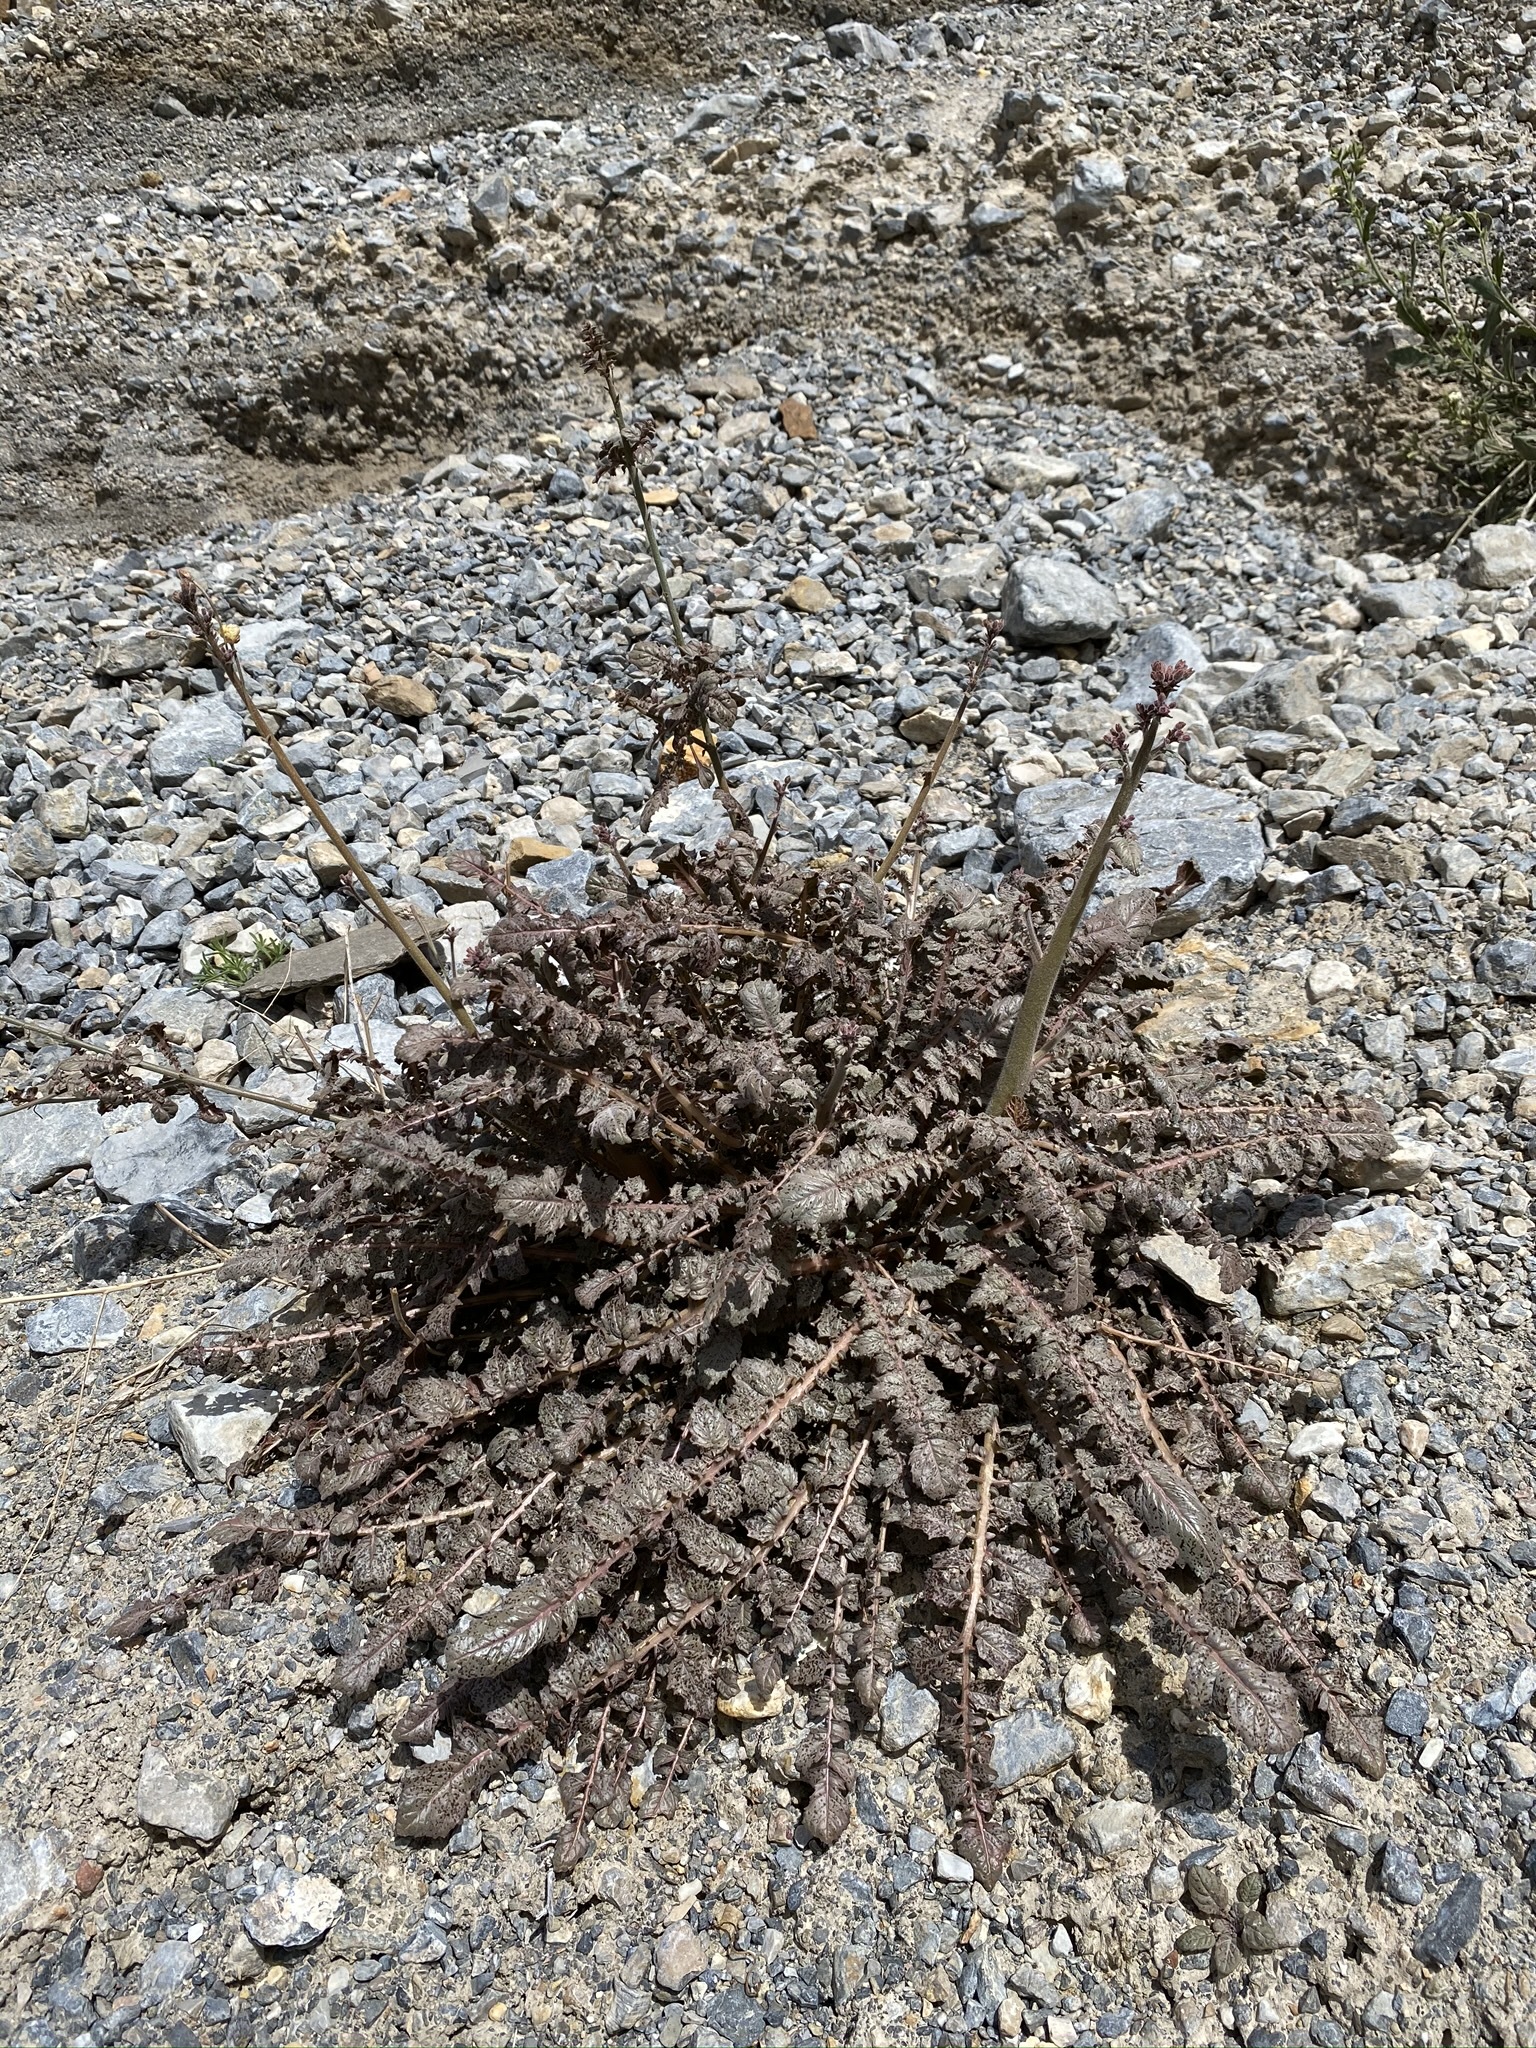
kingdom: Plantae
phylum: Tracheophyta
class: Magnoliopsida
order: Myrtales
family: Onagraceae
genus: Chylismia
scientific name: Chylismia walkeri
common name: Walker's suncup
